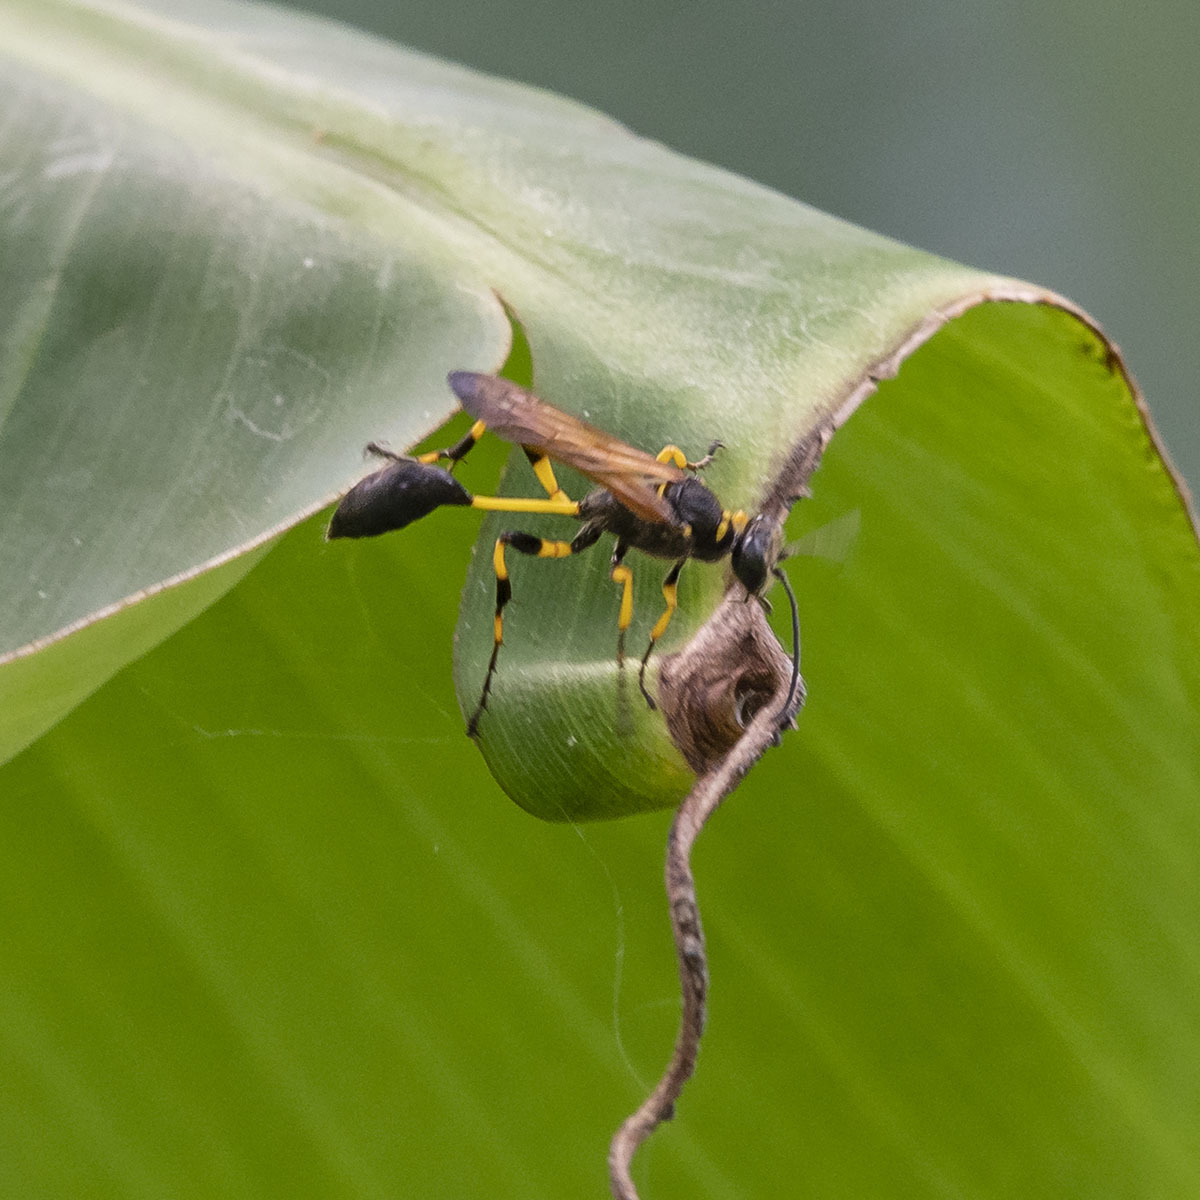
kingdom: Animalia
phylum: Arthropoda
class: Insecta
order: Hymenoptera
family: Sphecidae
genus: Sceliphron
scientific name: Sceliphron madraspatanum
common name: Mud dauber
